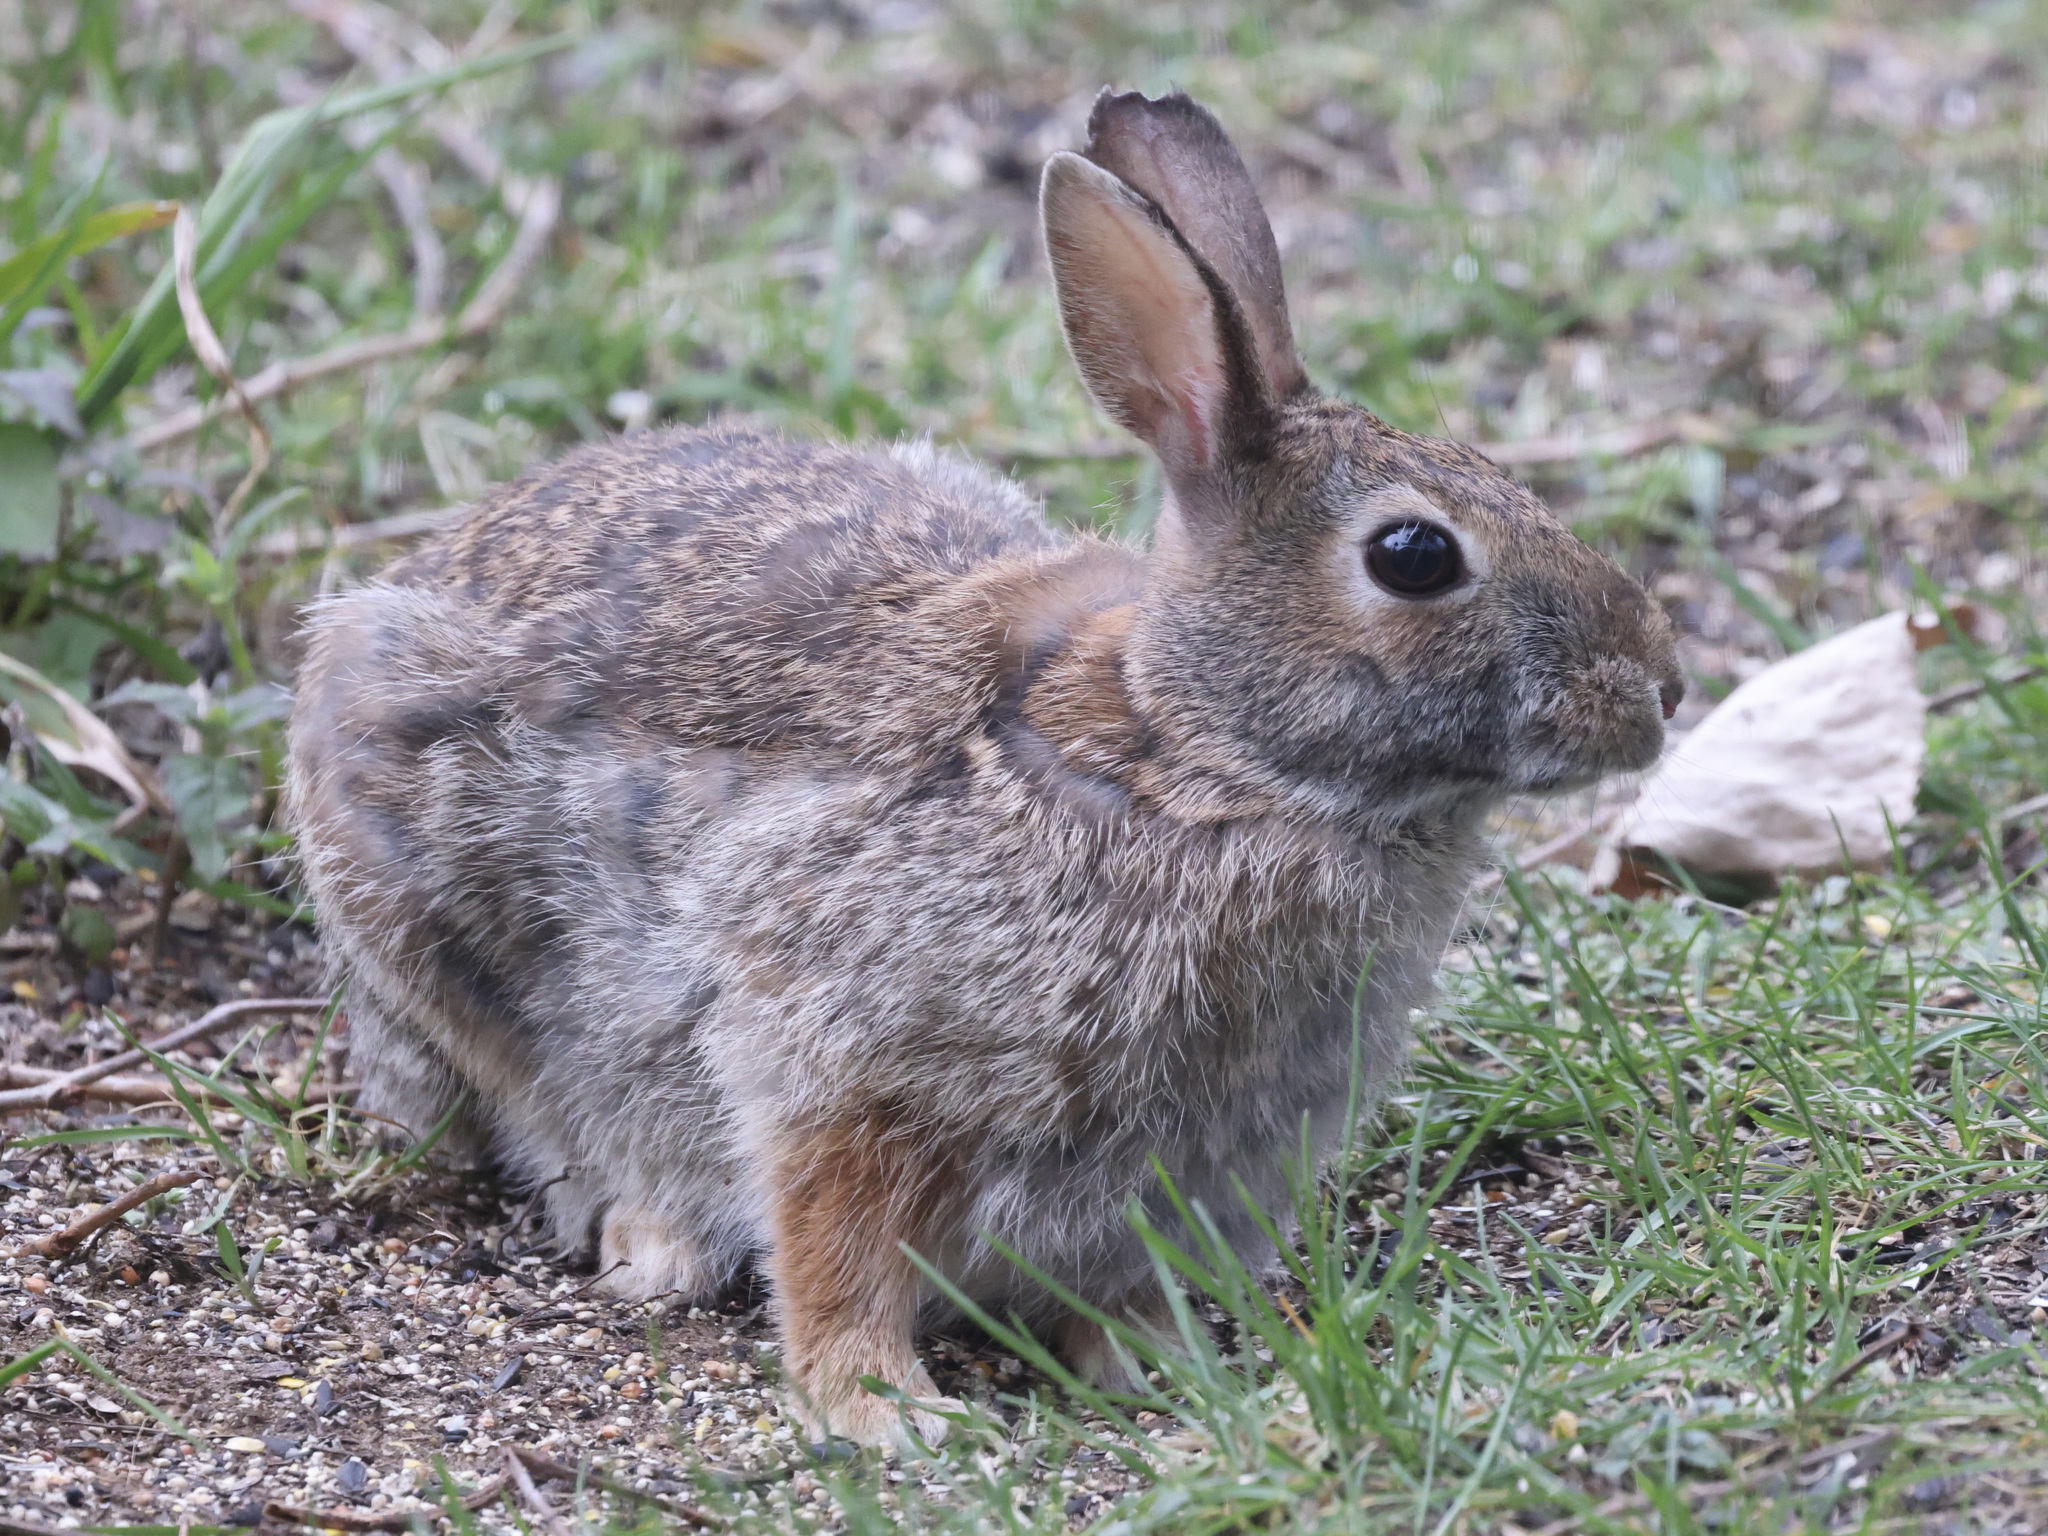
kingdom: Animalia
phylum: Chordata
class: Mammalia
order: Lagomorpha
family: Leporidae
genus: Sylvilagus
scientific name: Sylvilagus floridanus
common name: Eastern cottontail
